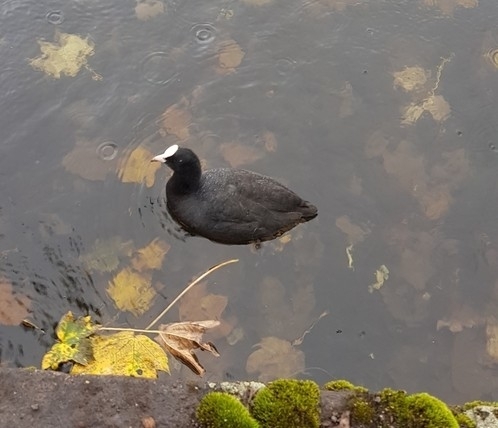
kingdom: Animalia
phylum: Chordata
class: Aves
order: Gruiformes
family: Rallidae
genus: Fulica
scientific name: Fulica atra
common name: Eurasian coot
